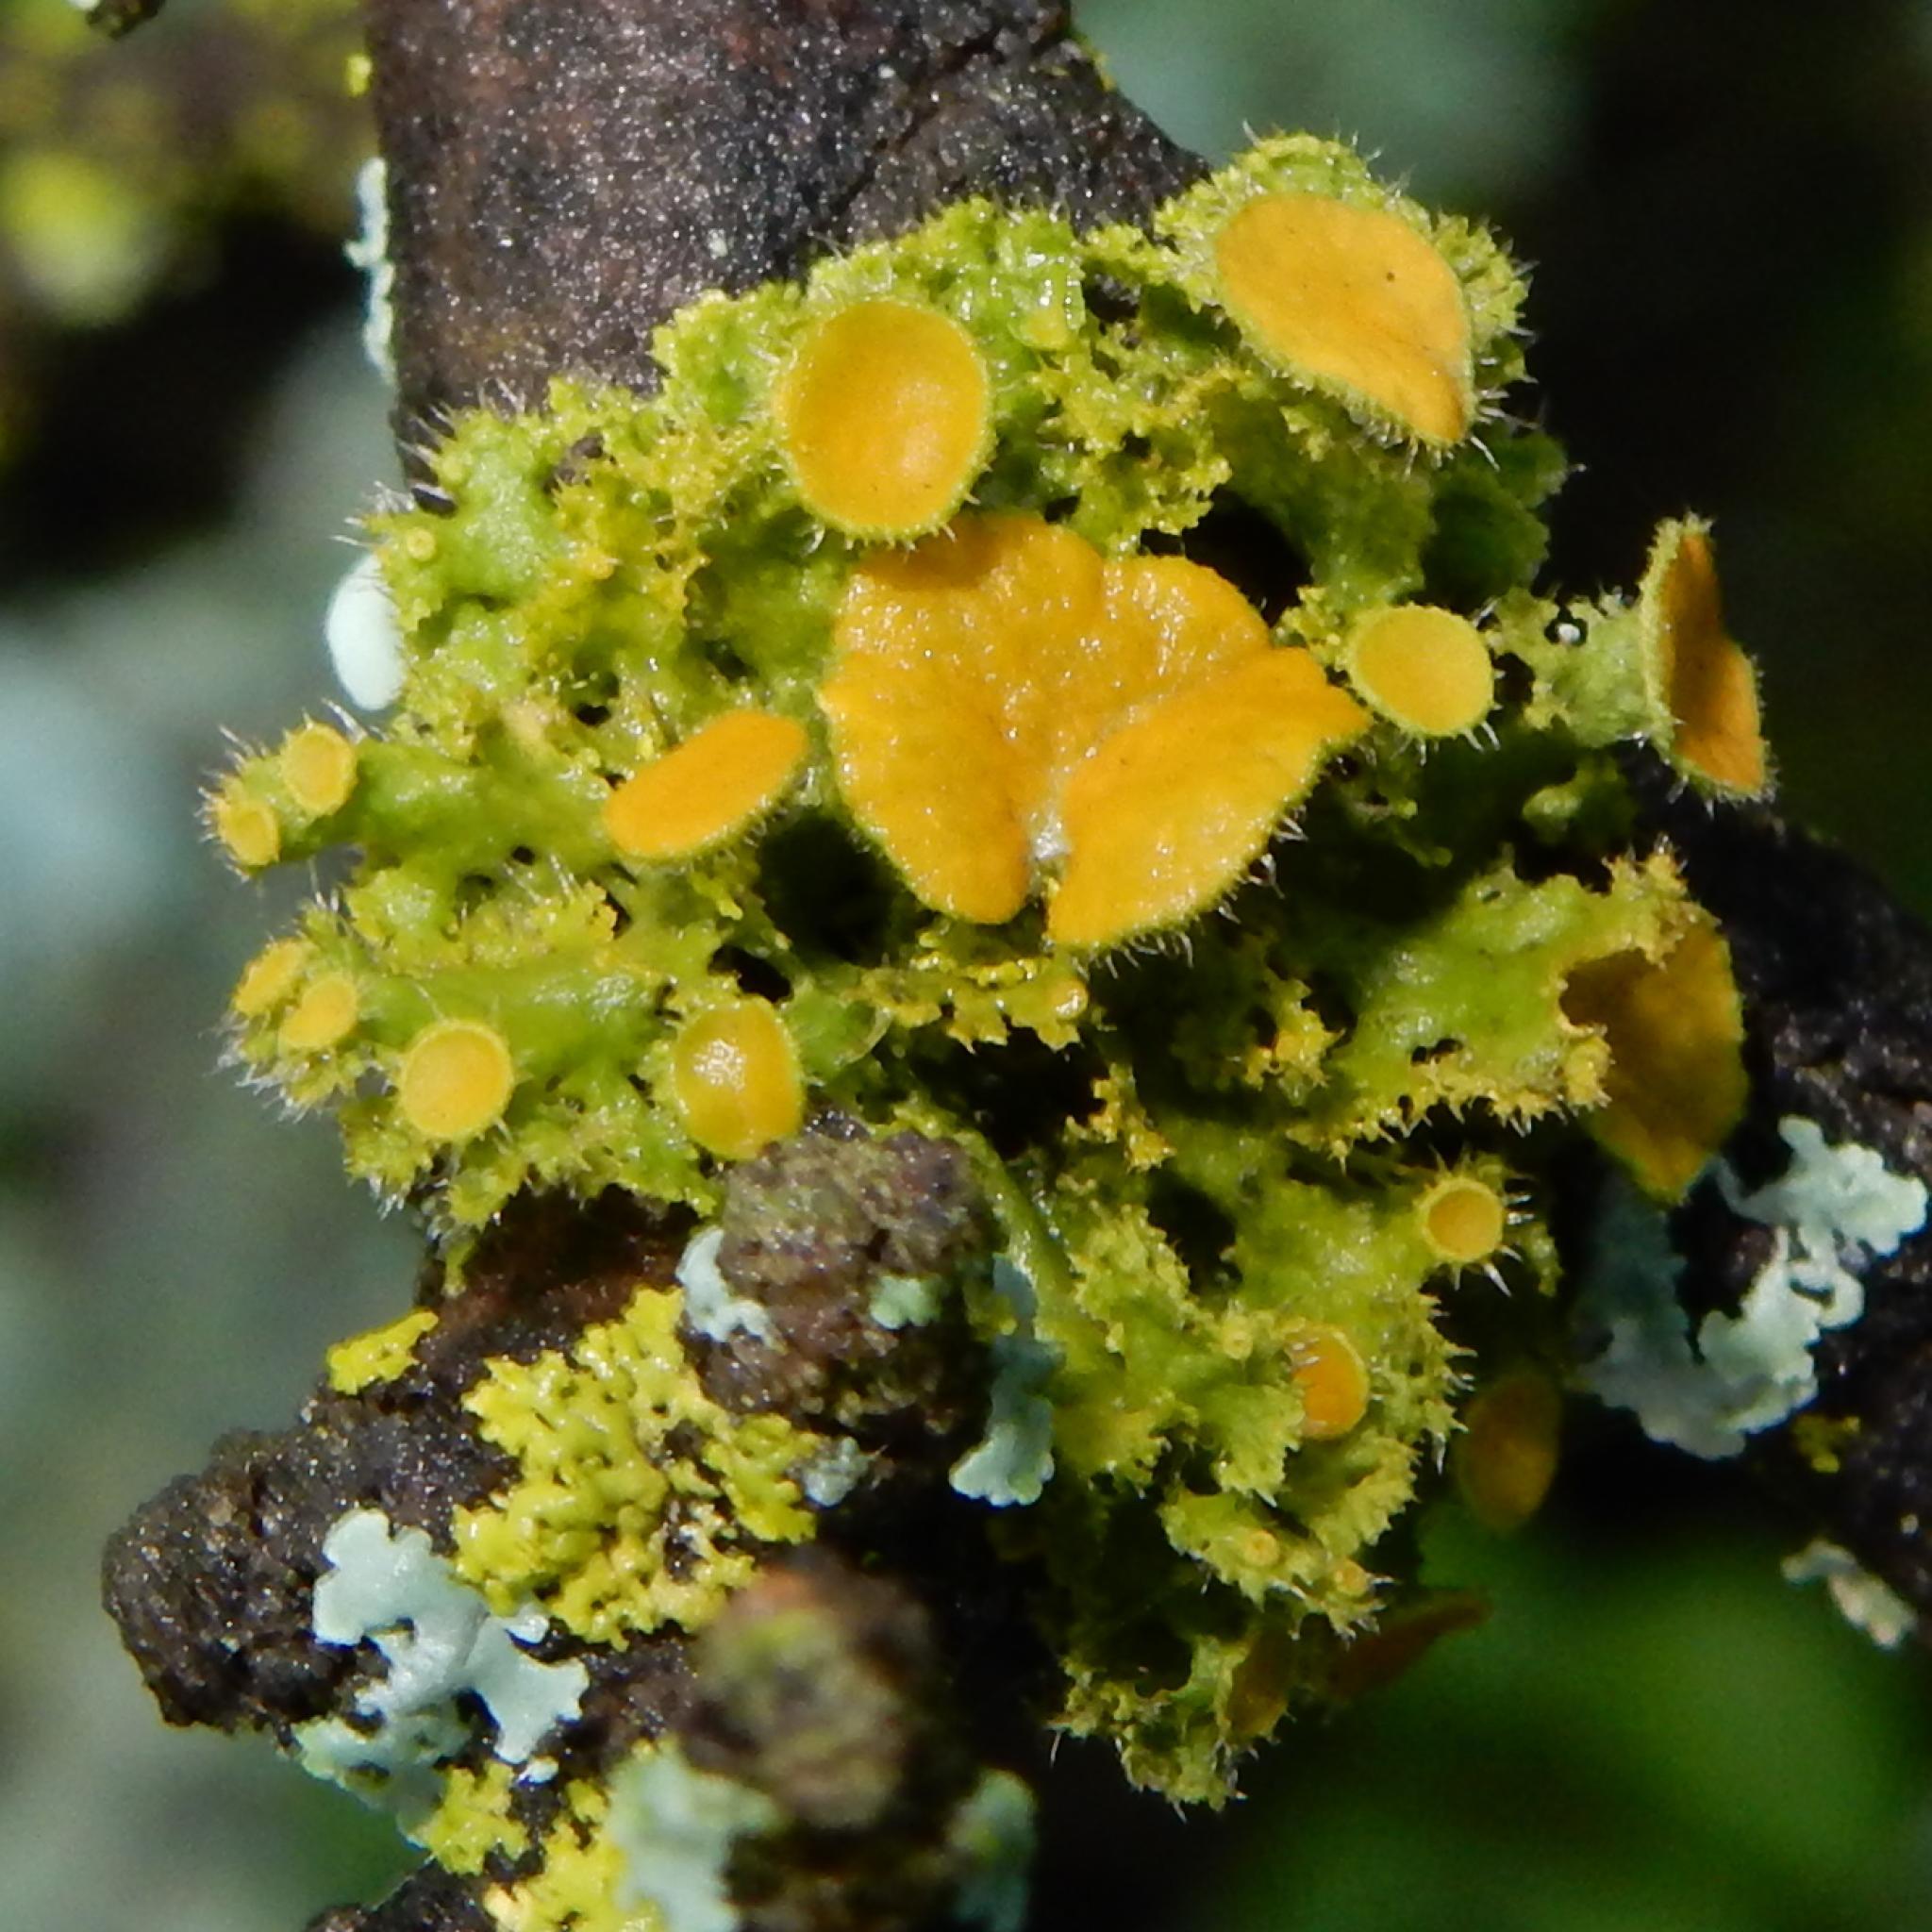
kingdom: Fungi
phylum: Ascomycota
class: Lecanoromycetes
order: Teloschistales
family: Teloschistaceae
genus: Niorma
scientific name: Niorma chrysophthalma
